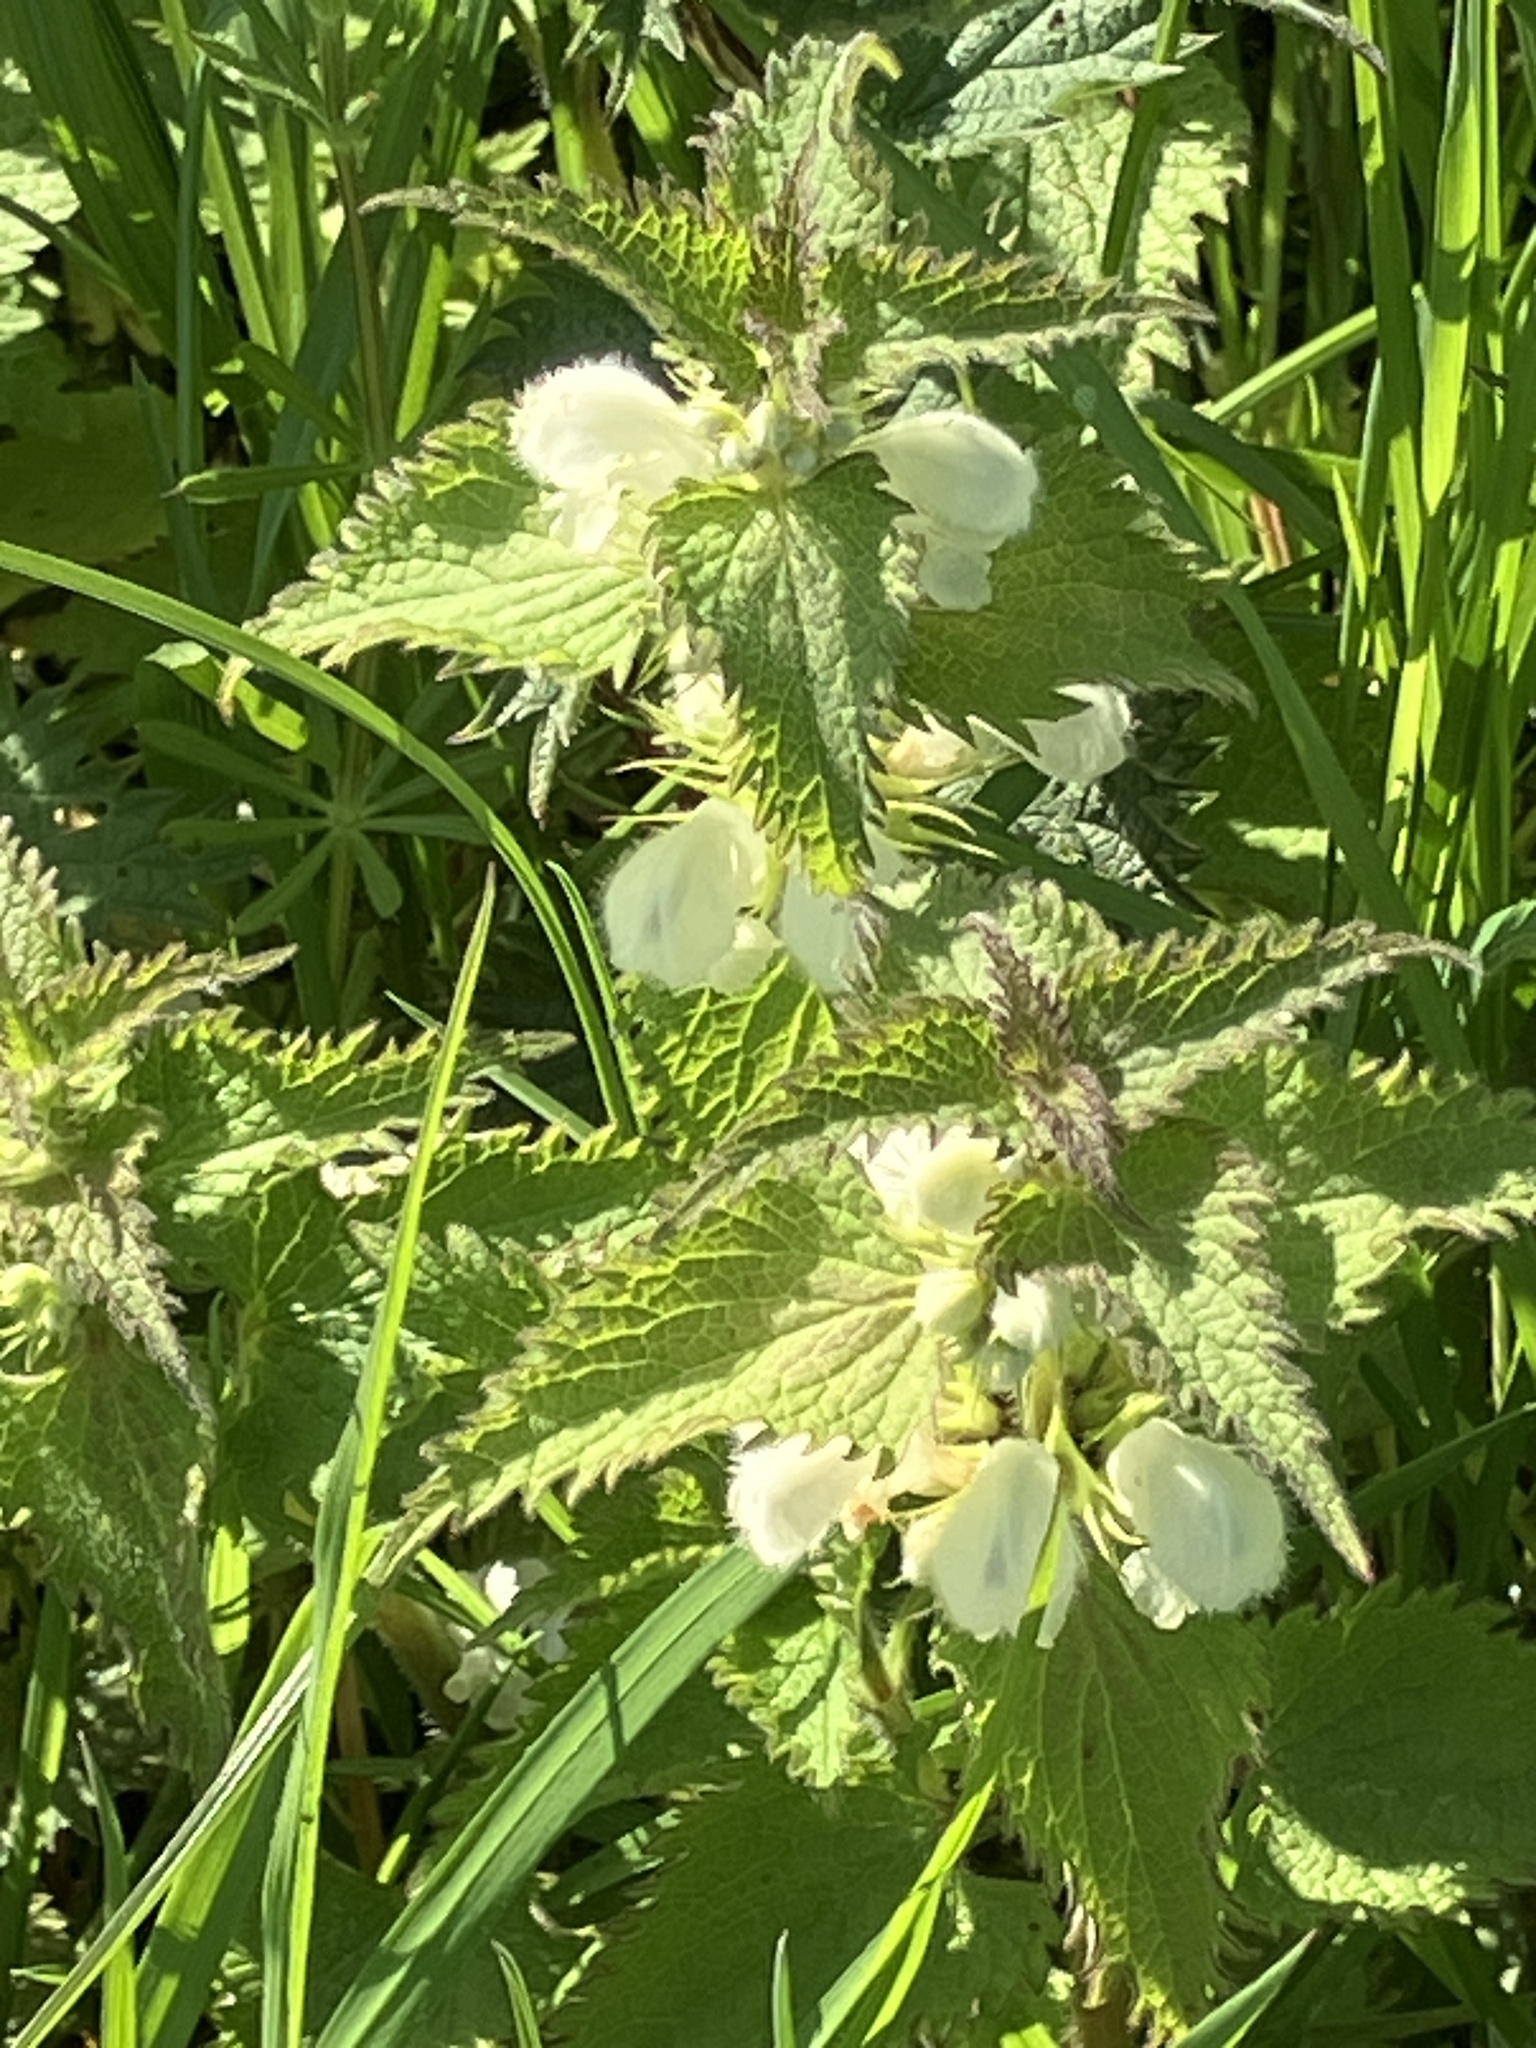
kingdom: Plantae
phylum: Tracheophyta
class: Magnoliopsida
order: Lamiales
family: Lamiaceae
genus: Lamium
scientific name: Lamium album
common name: White dead-nettle
